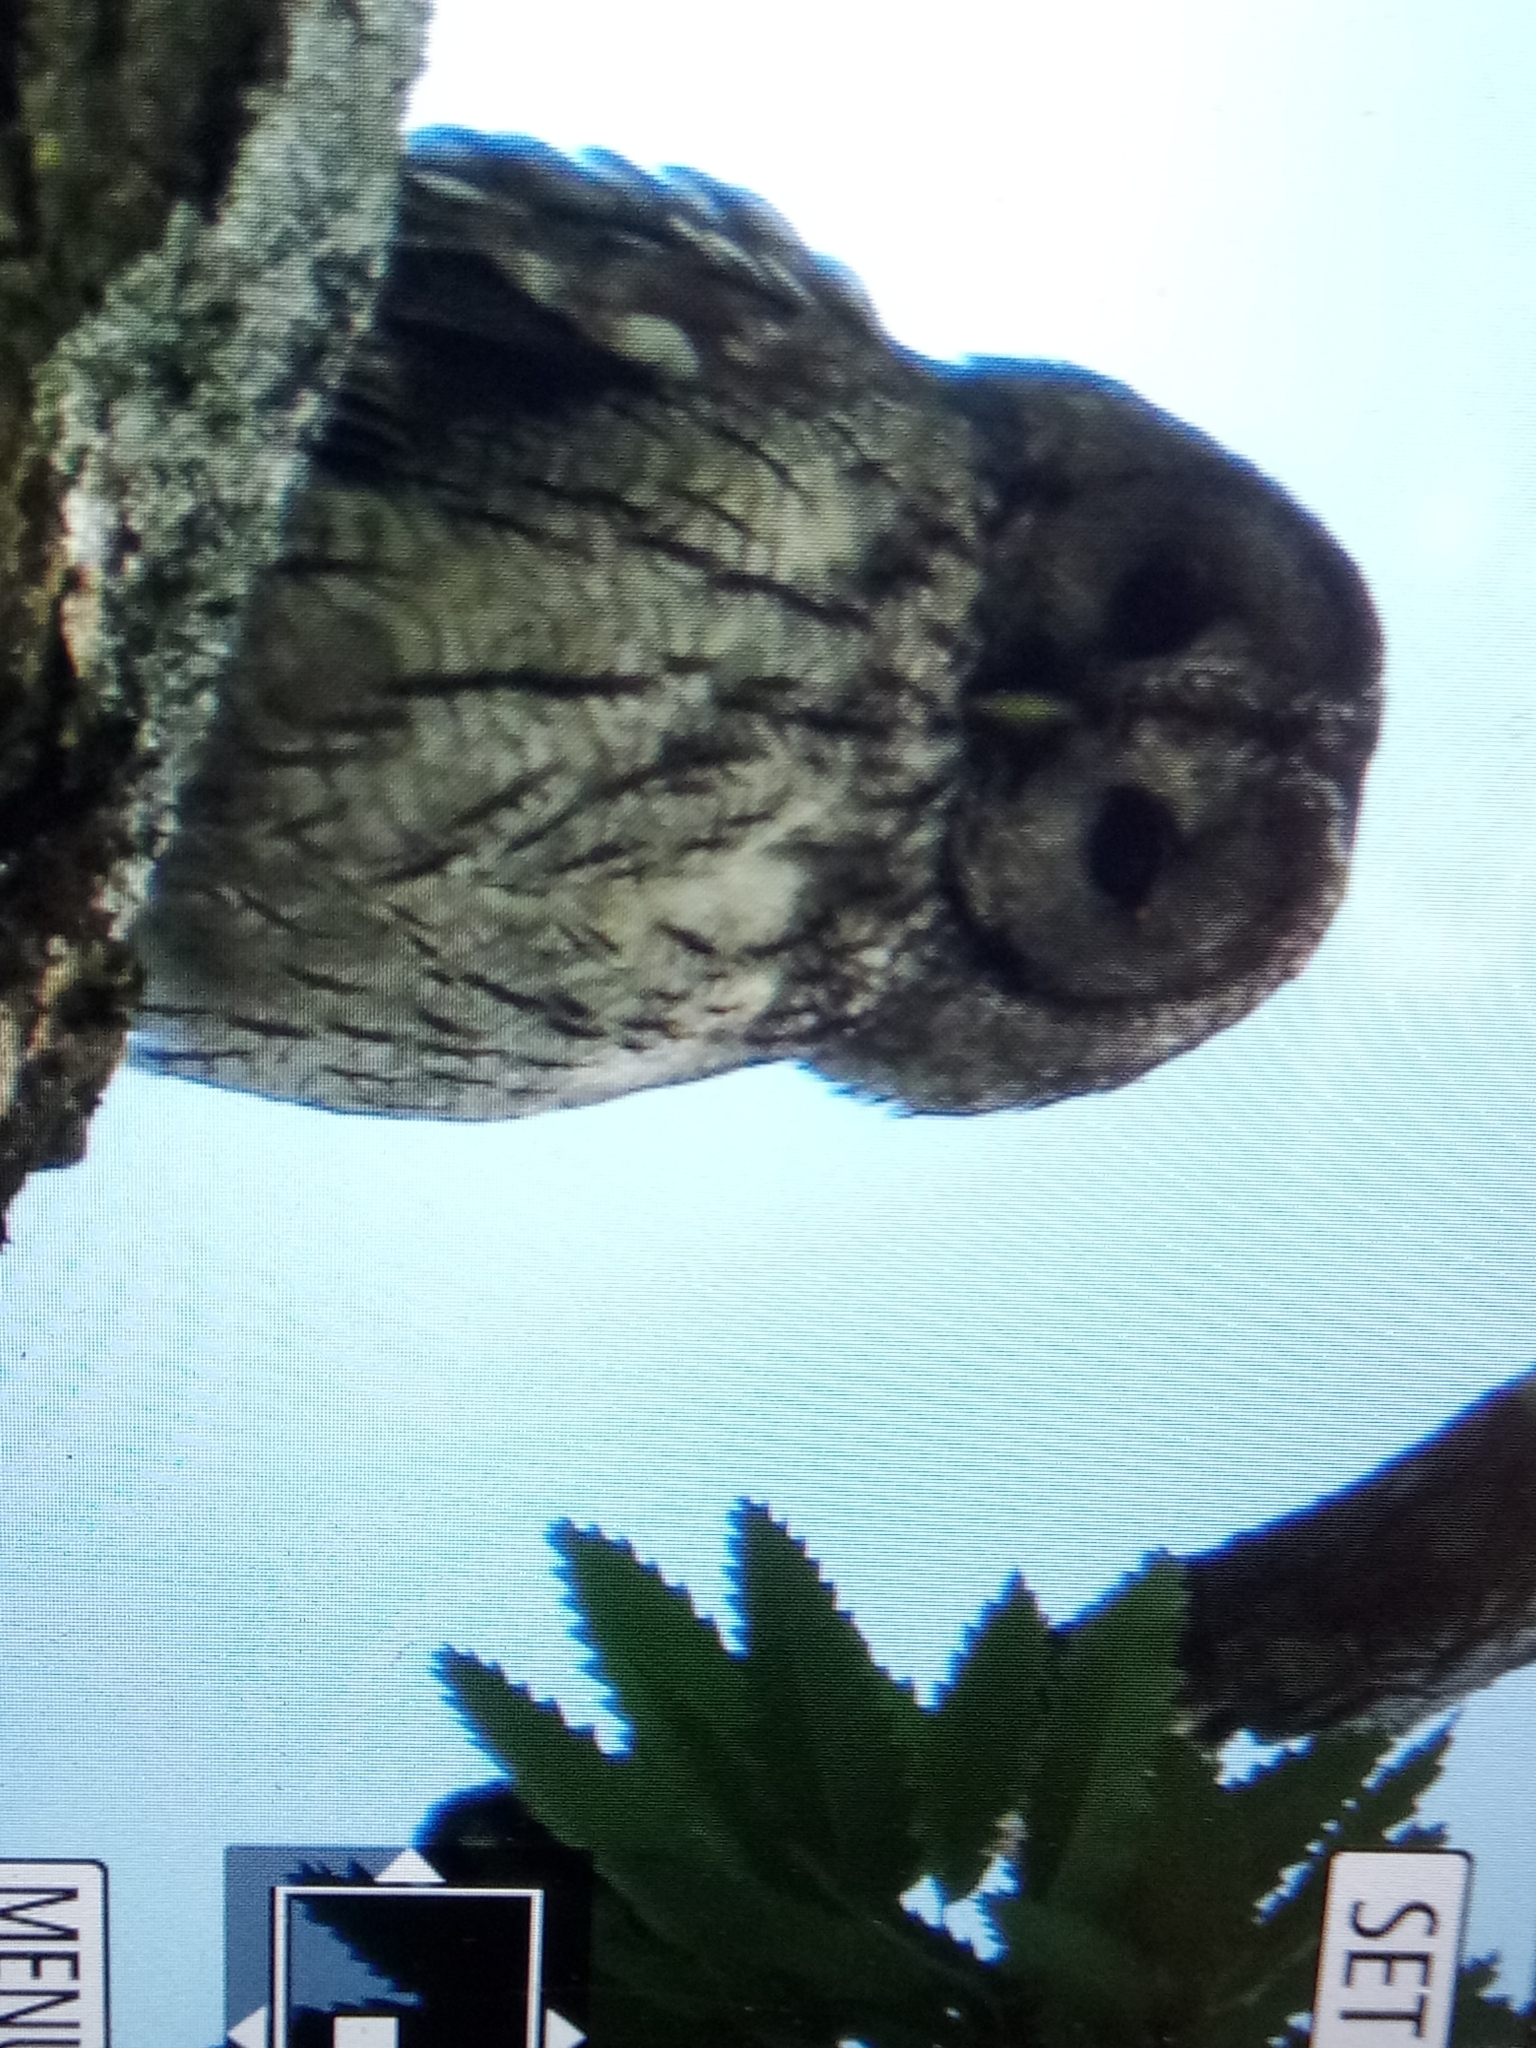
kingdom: Animalia
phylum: Chordata
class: Aves
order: Strigiformes
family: Strigidae
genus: Strix
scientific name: Strix aluco
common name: Tawny owl
